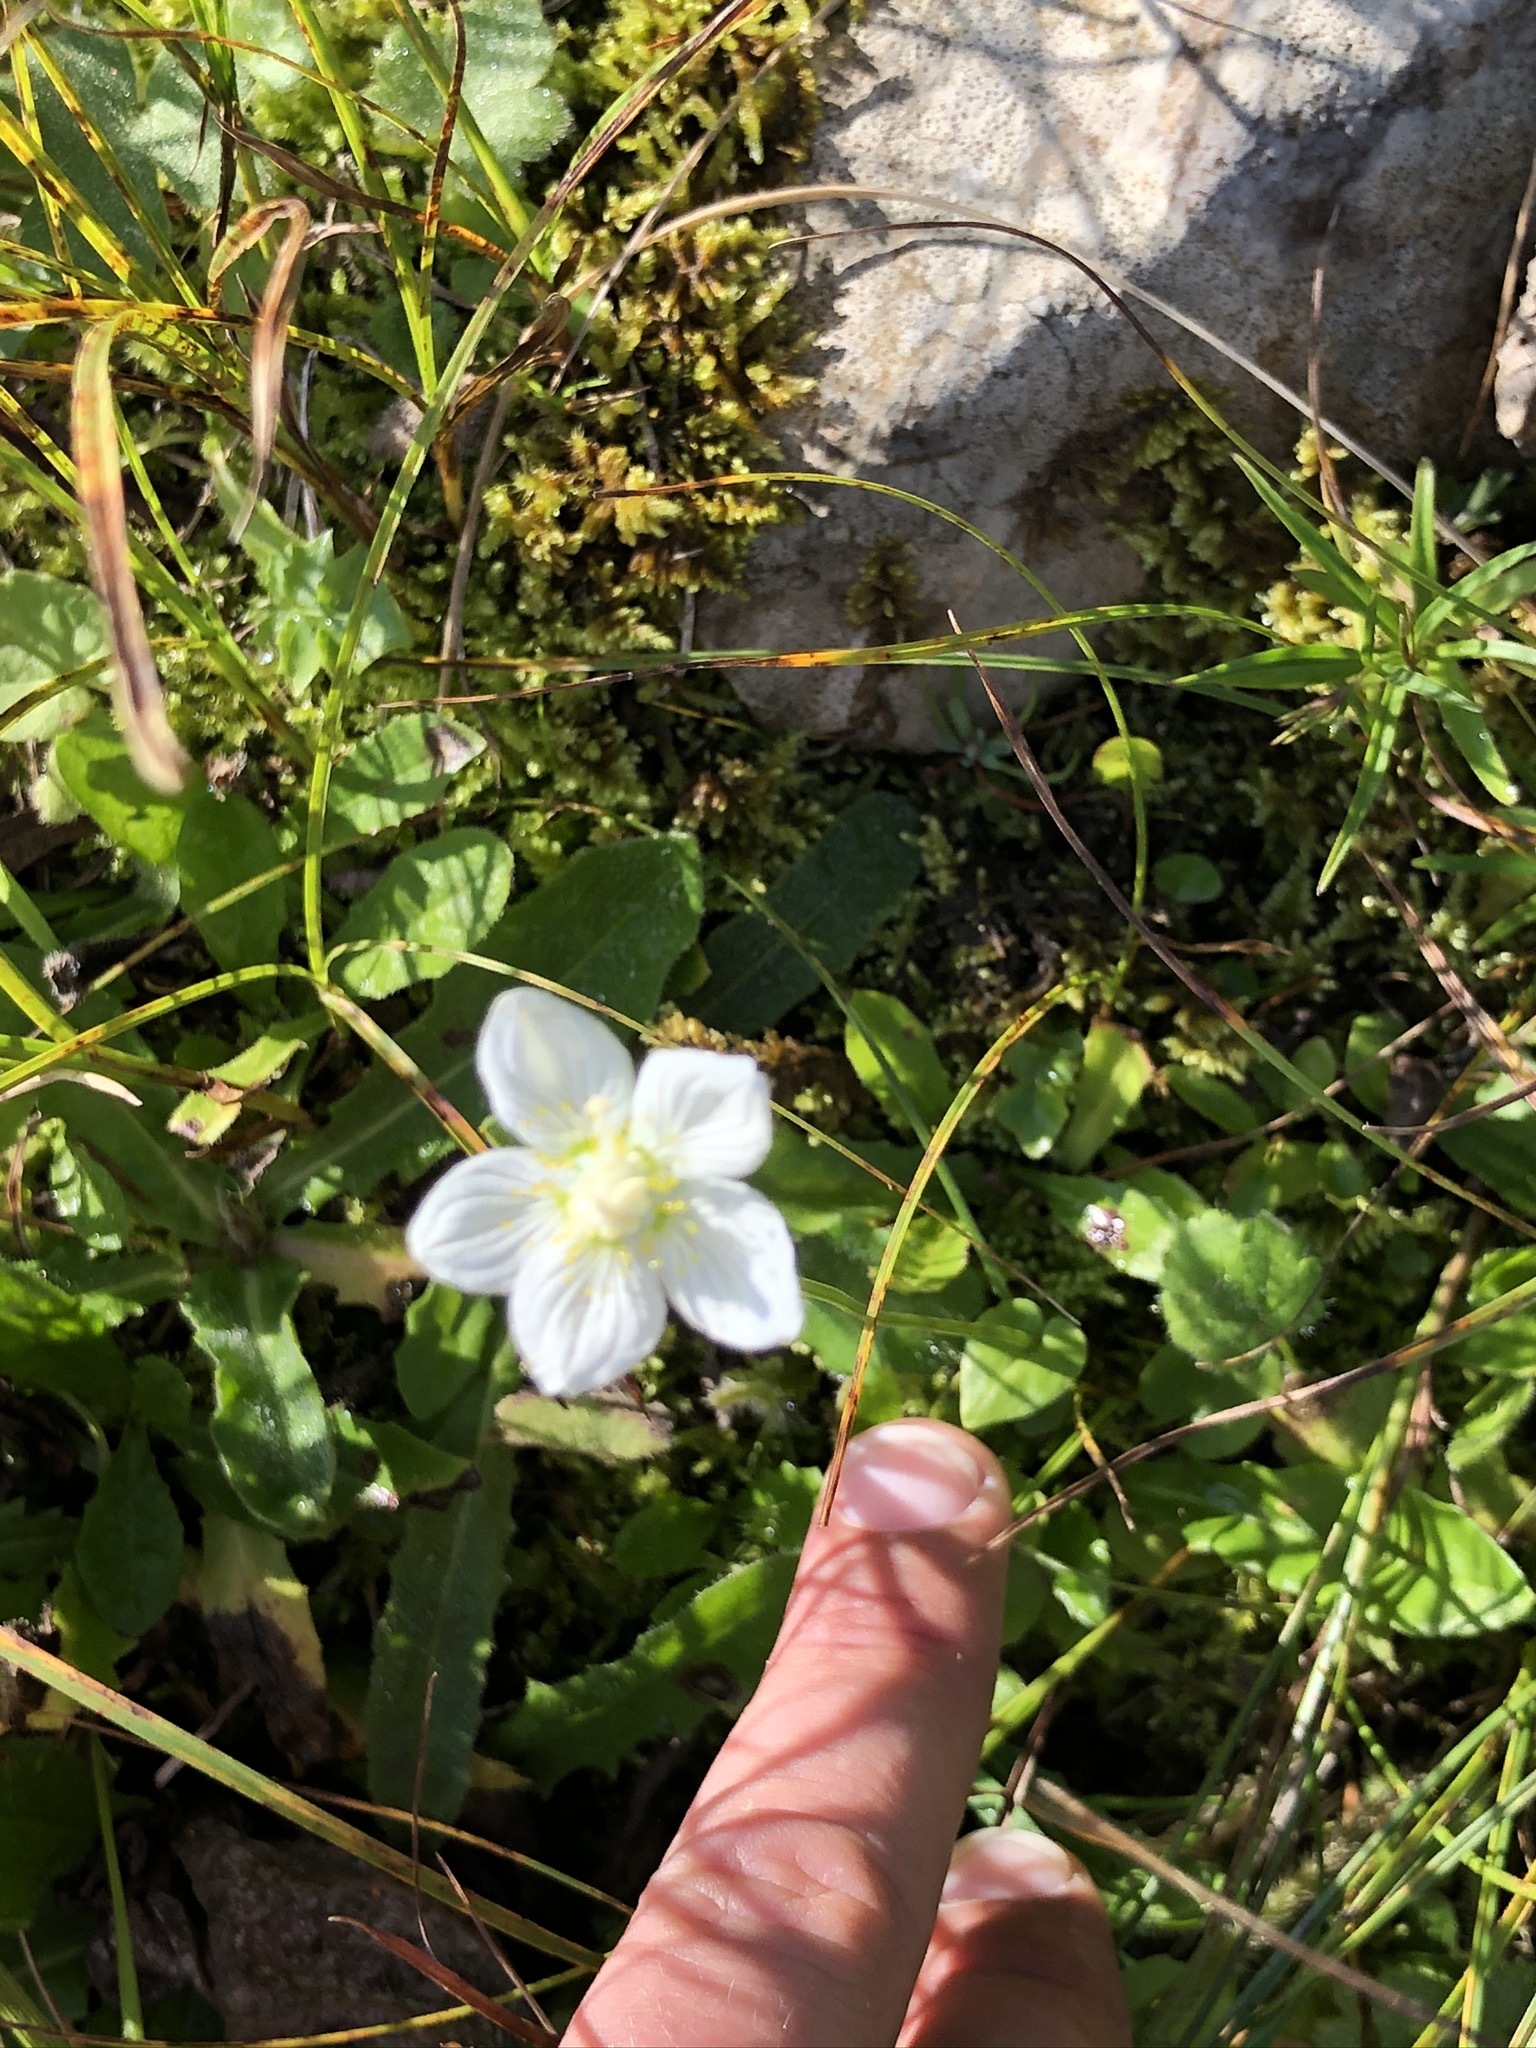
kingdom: Plantae
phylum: Tracheophyta
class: Magnoliopsida
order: Celastrales
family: Parnassiaceae
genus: Parnassia
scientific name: Parnassia palustris
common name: Grass-of-parnassus
